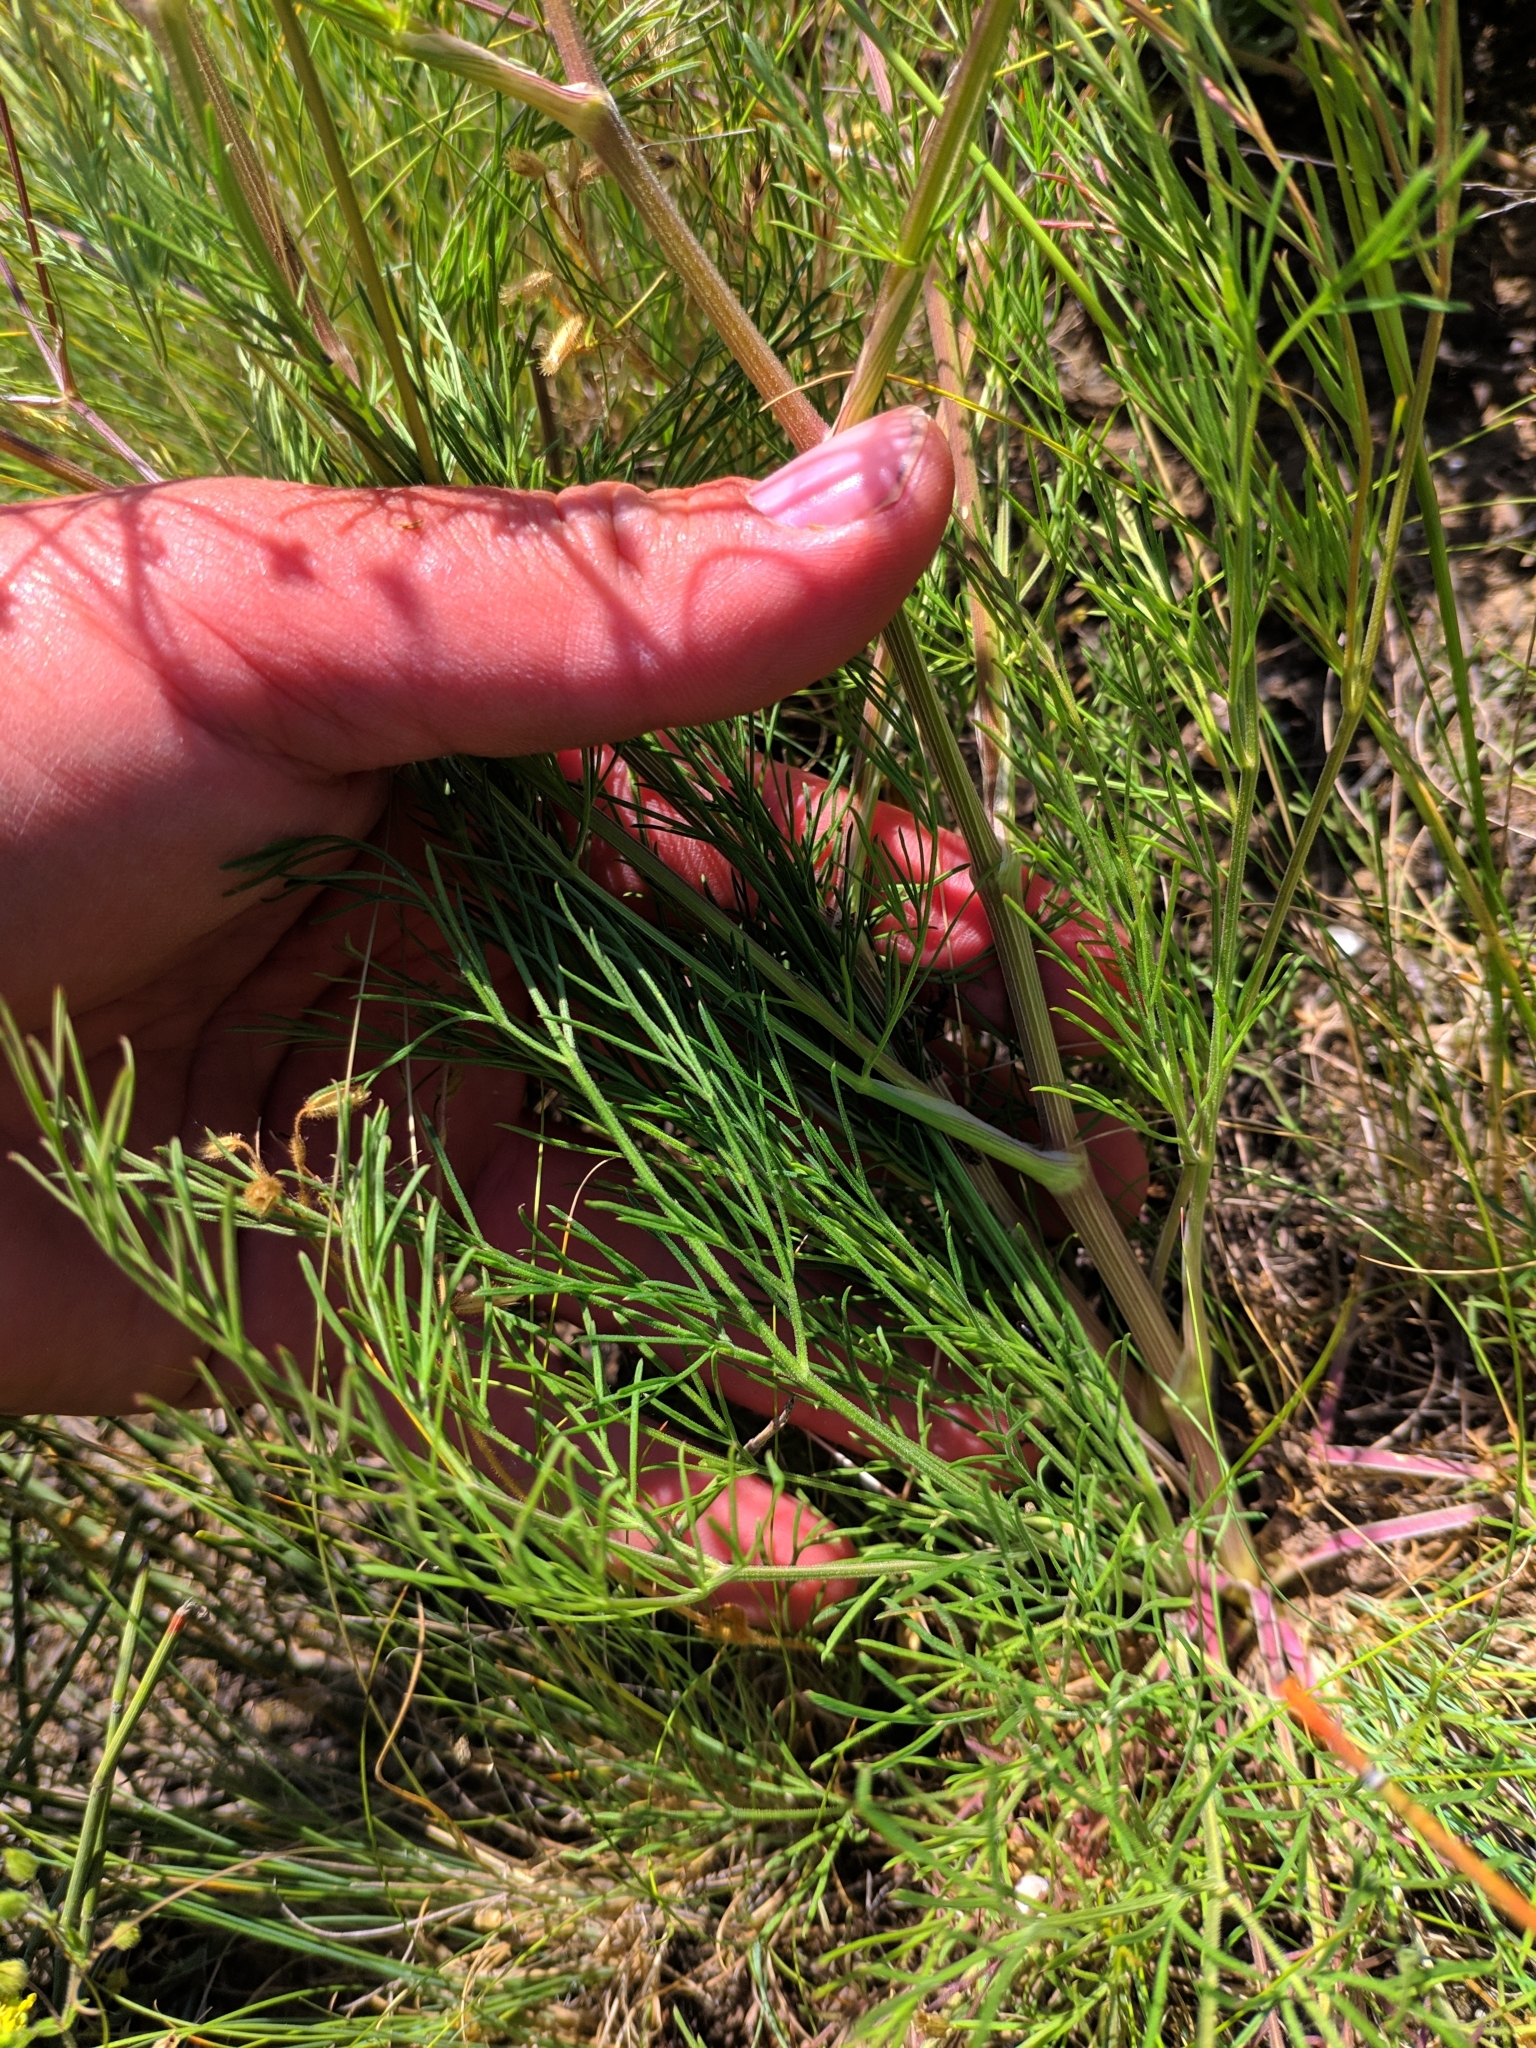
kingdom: Plantae
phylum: Tracheophyta
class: Magnoliopsida
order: Apiales
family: Apiaceae
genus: Trinia
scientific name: Trinia hispida
